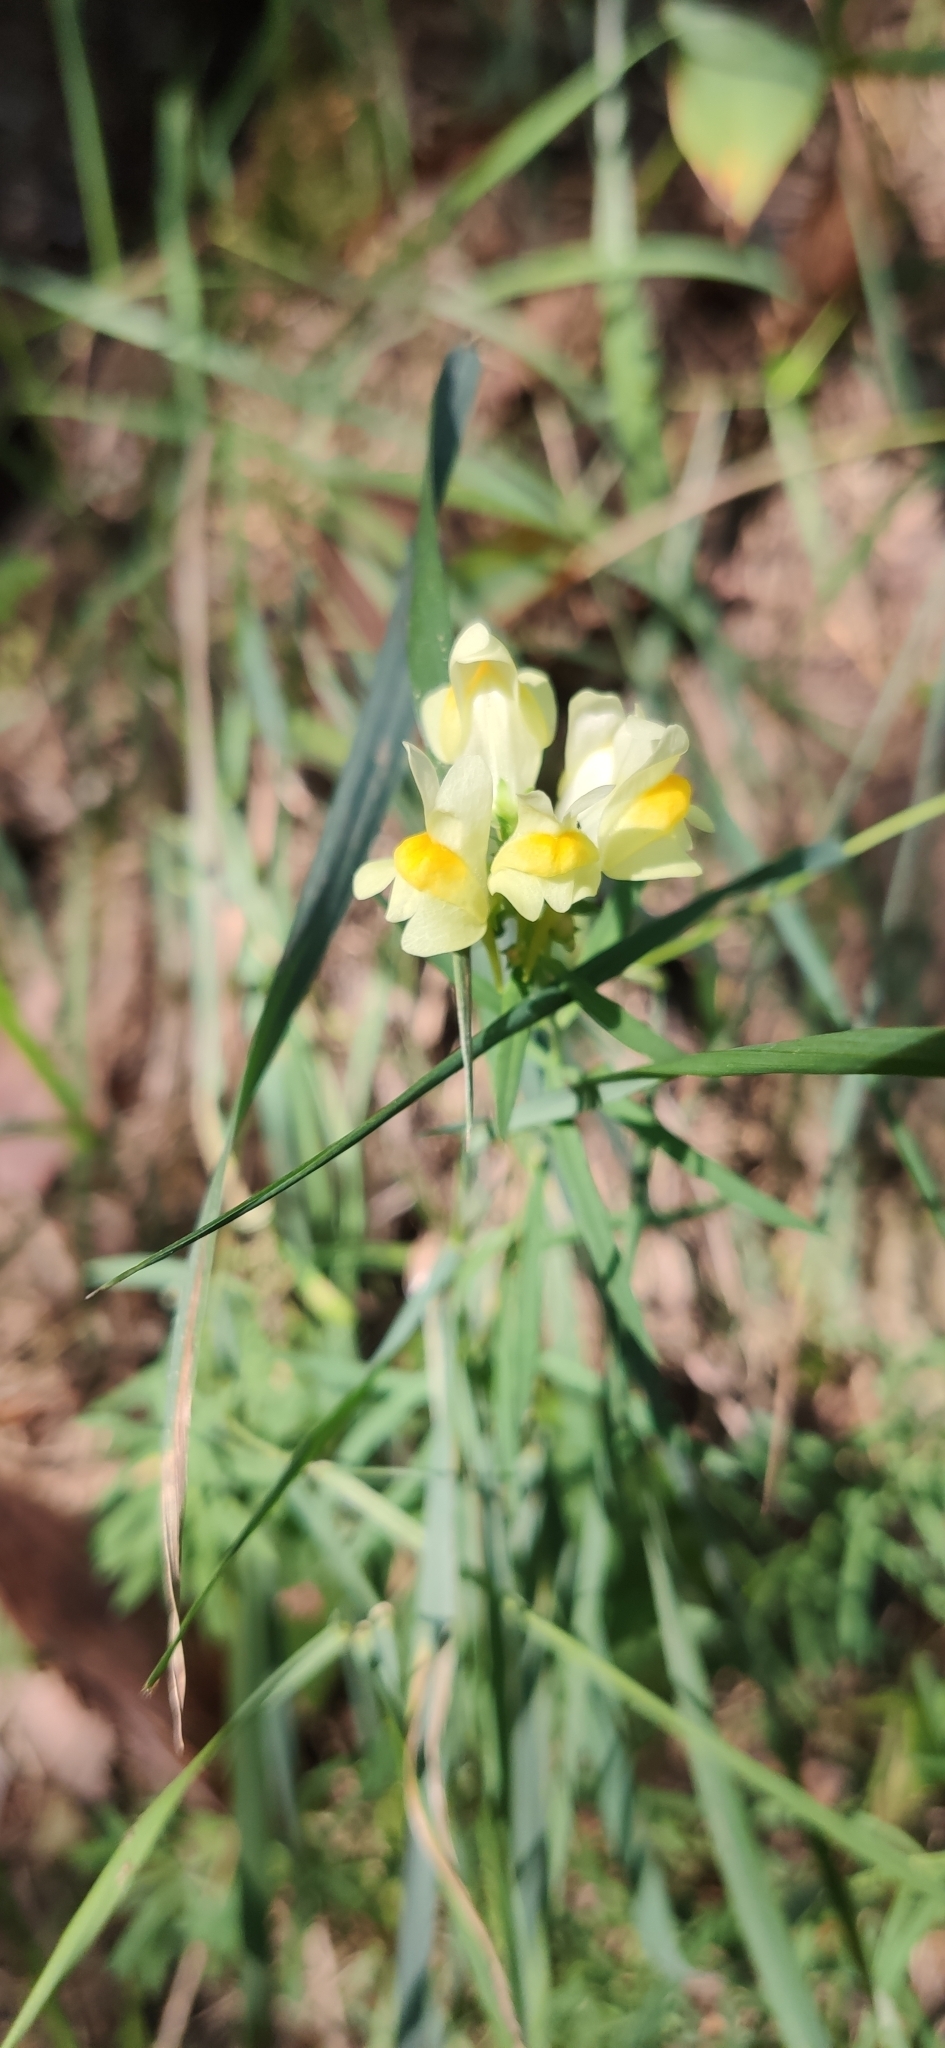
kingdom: Plantae
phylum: Tracheophyta
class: Magnoliopsida
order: Lamiales
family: Plantaginaceae
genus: Linaria
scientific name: Linaria vulgaris
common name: Butter and eggs
